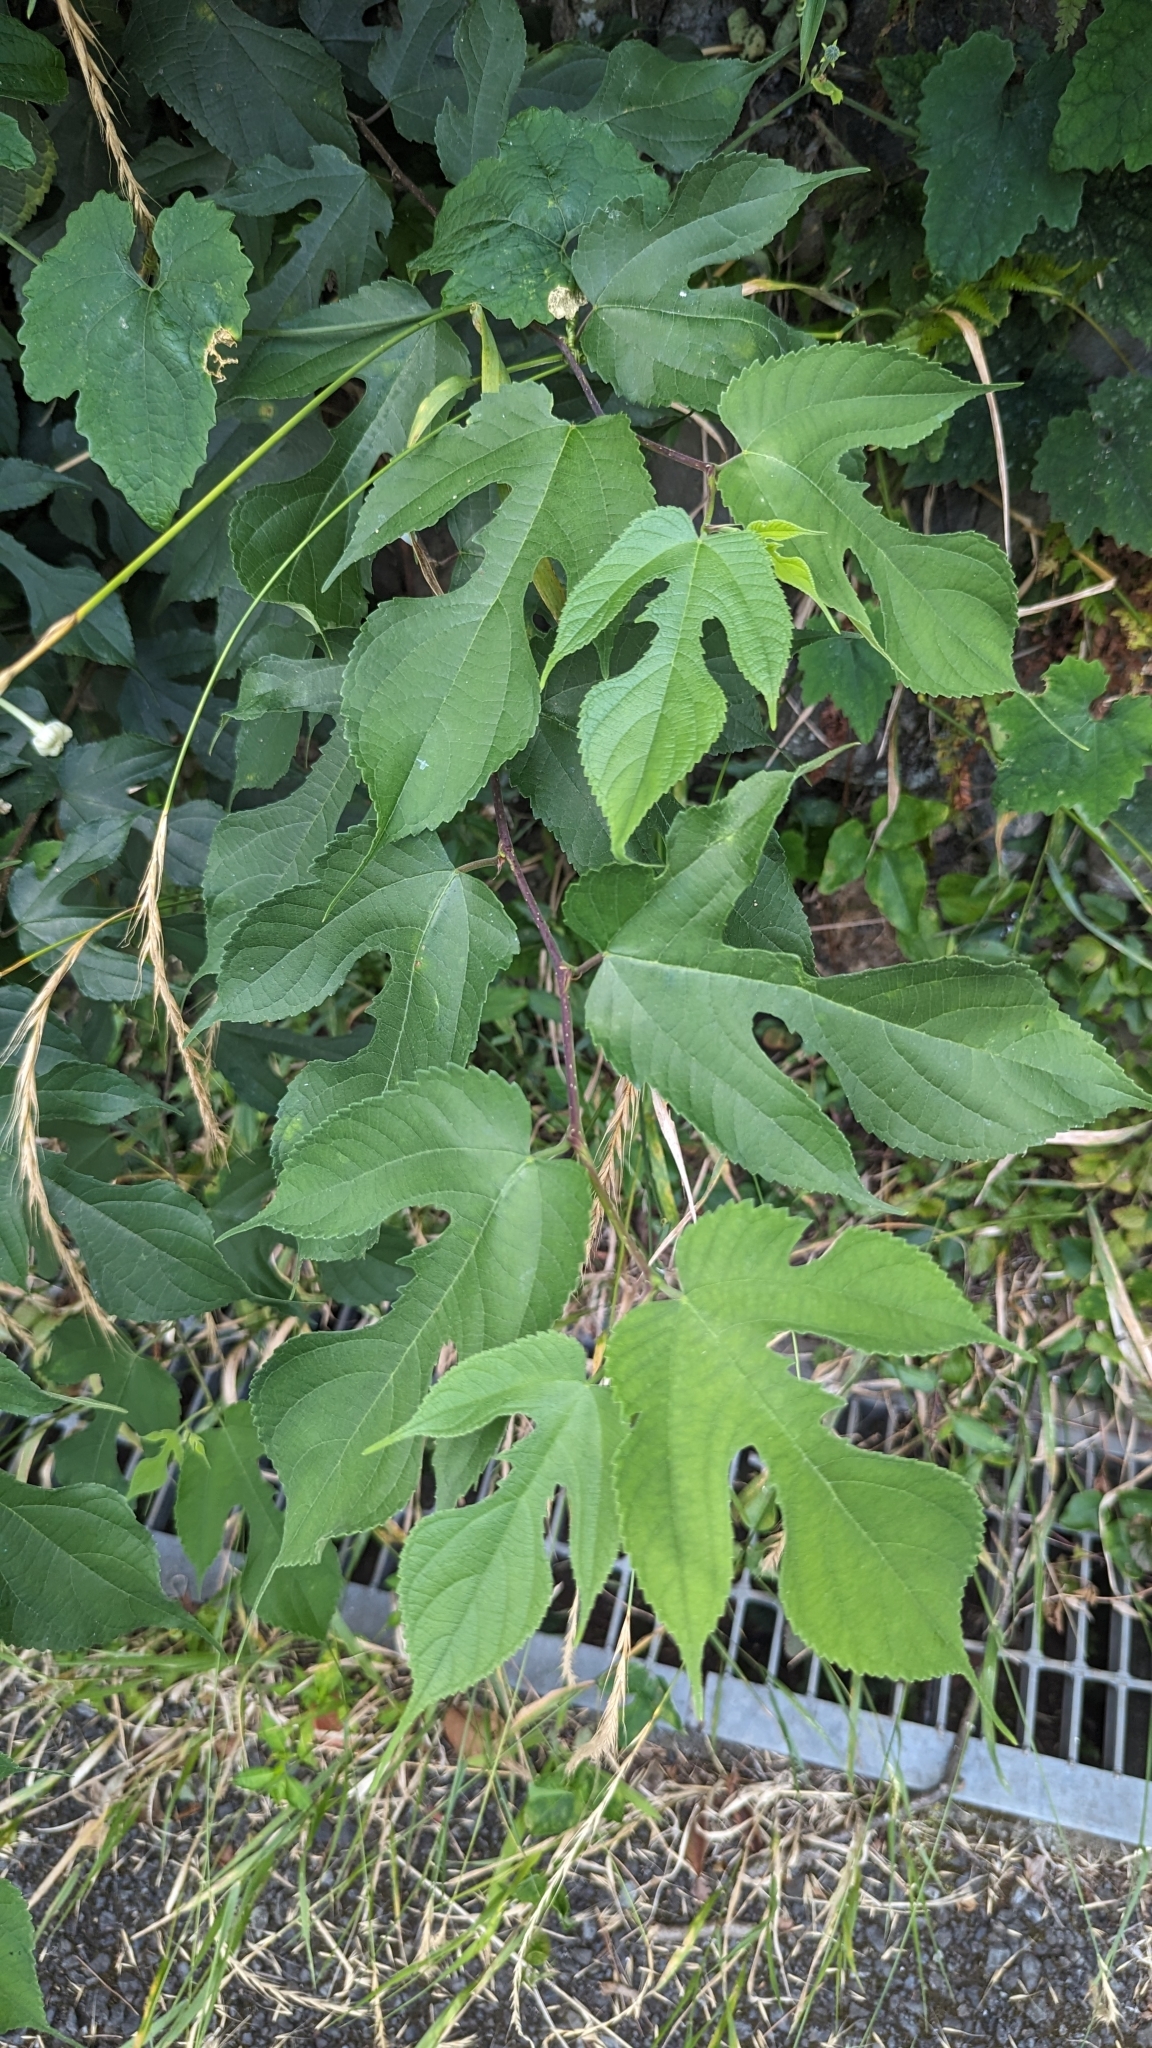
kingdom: Plantae
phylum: Tracheophyta
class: Magnoliopsida
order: Rosales
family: Moraceae
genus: Broussonetia
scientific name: Broussonetia monoica
